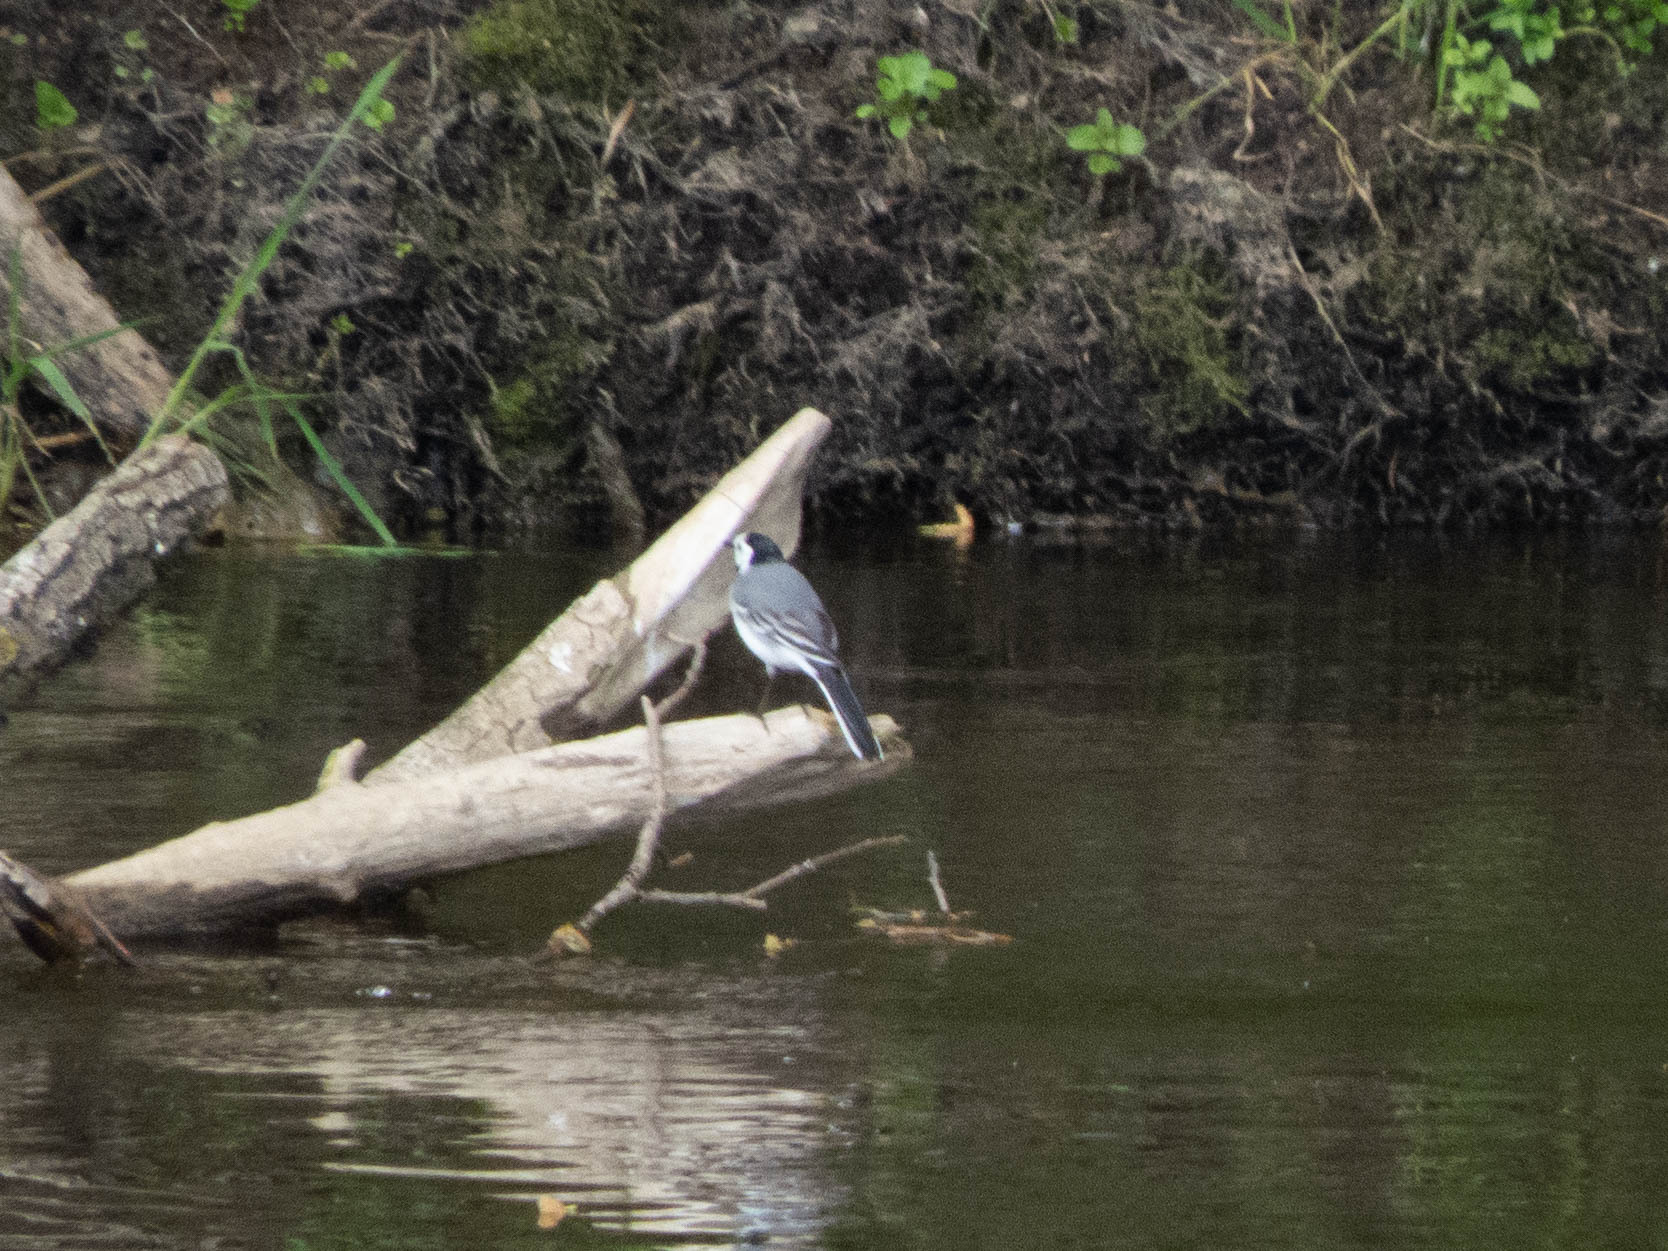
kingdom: Animalia
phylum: Chordata
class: Aves
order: Passeriformes
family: Motacillidae
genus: Motacilla
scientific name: Motacilla alba
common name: White wagtail
